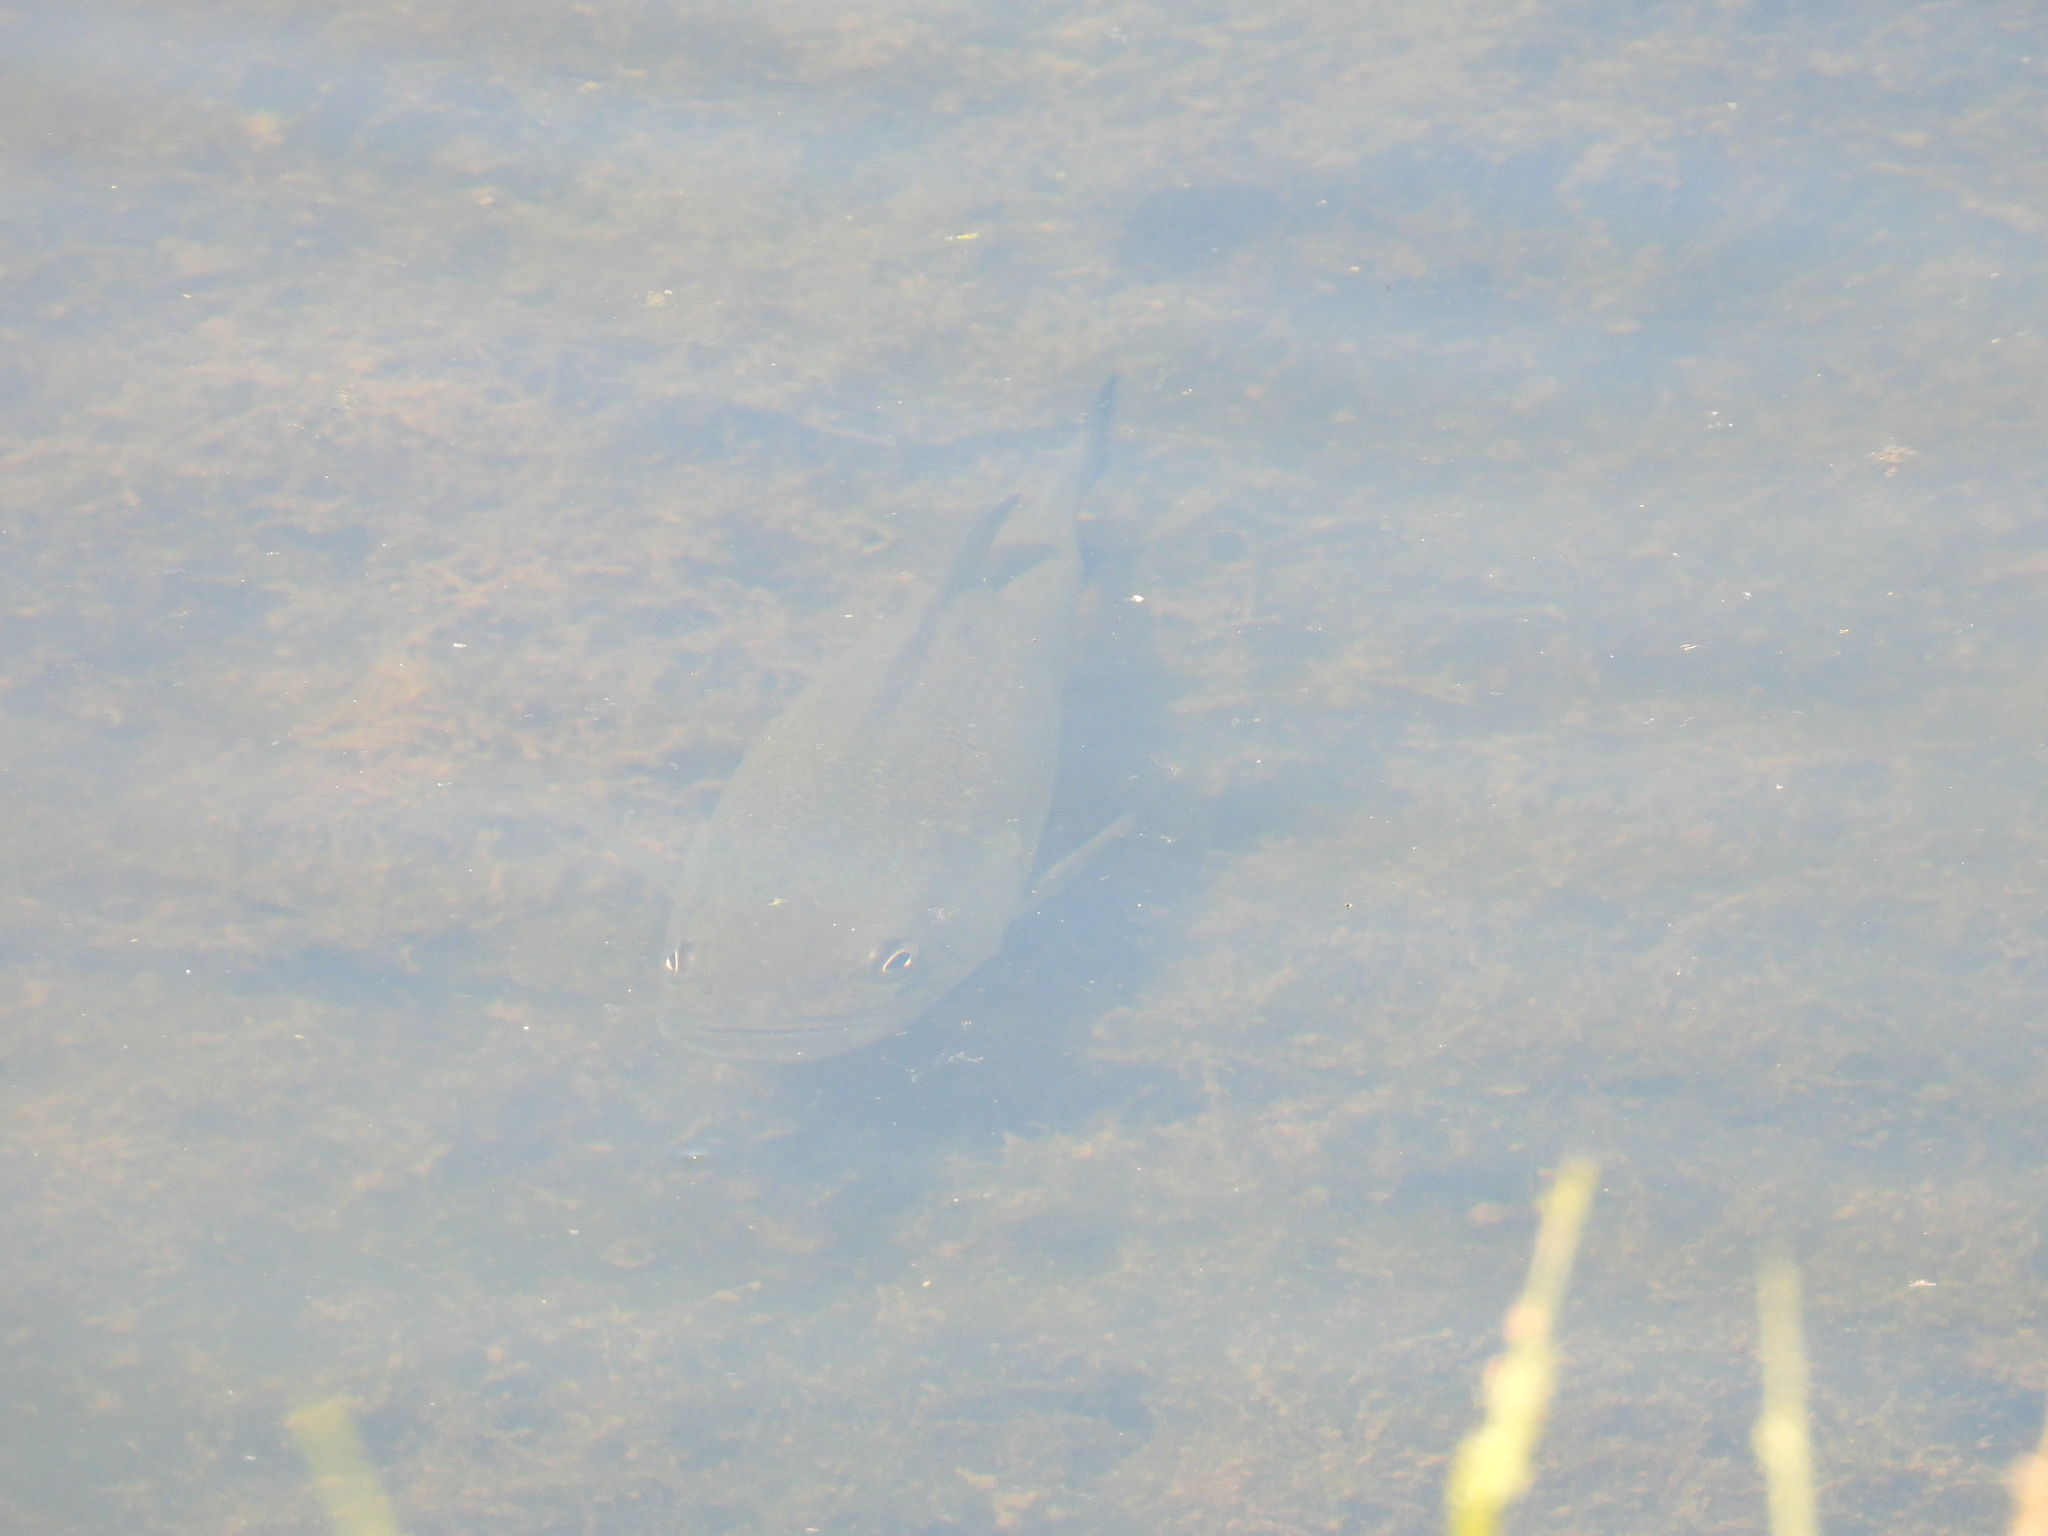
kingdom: Animalia
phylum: Chordata
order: Perciformes
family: Centrarchidae
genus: Micropterus
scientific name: Micropterus
